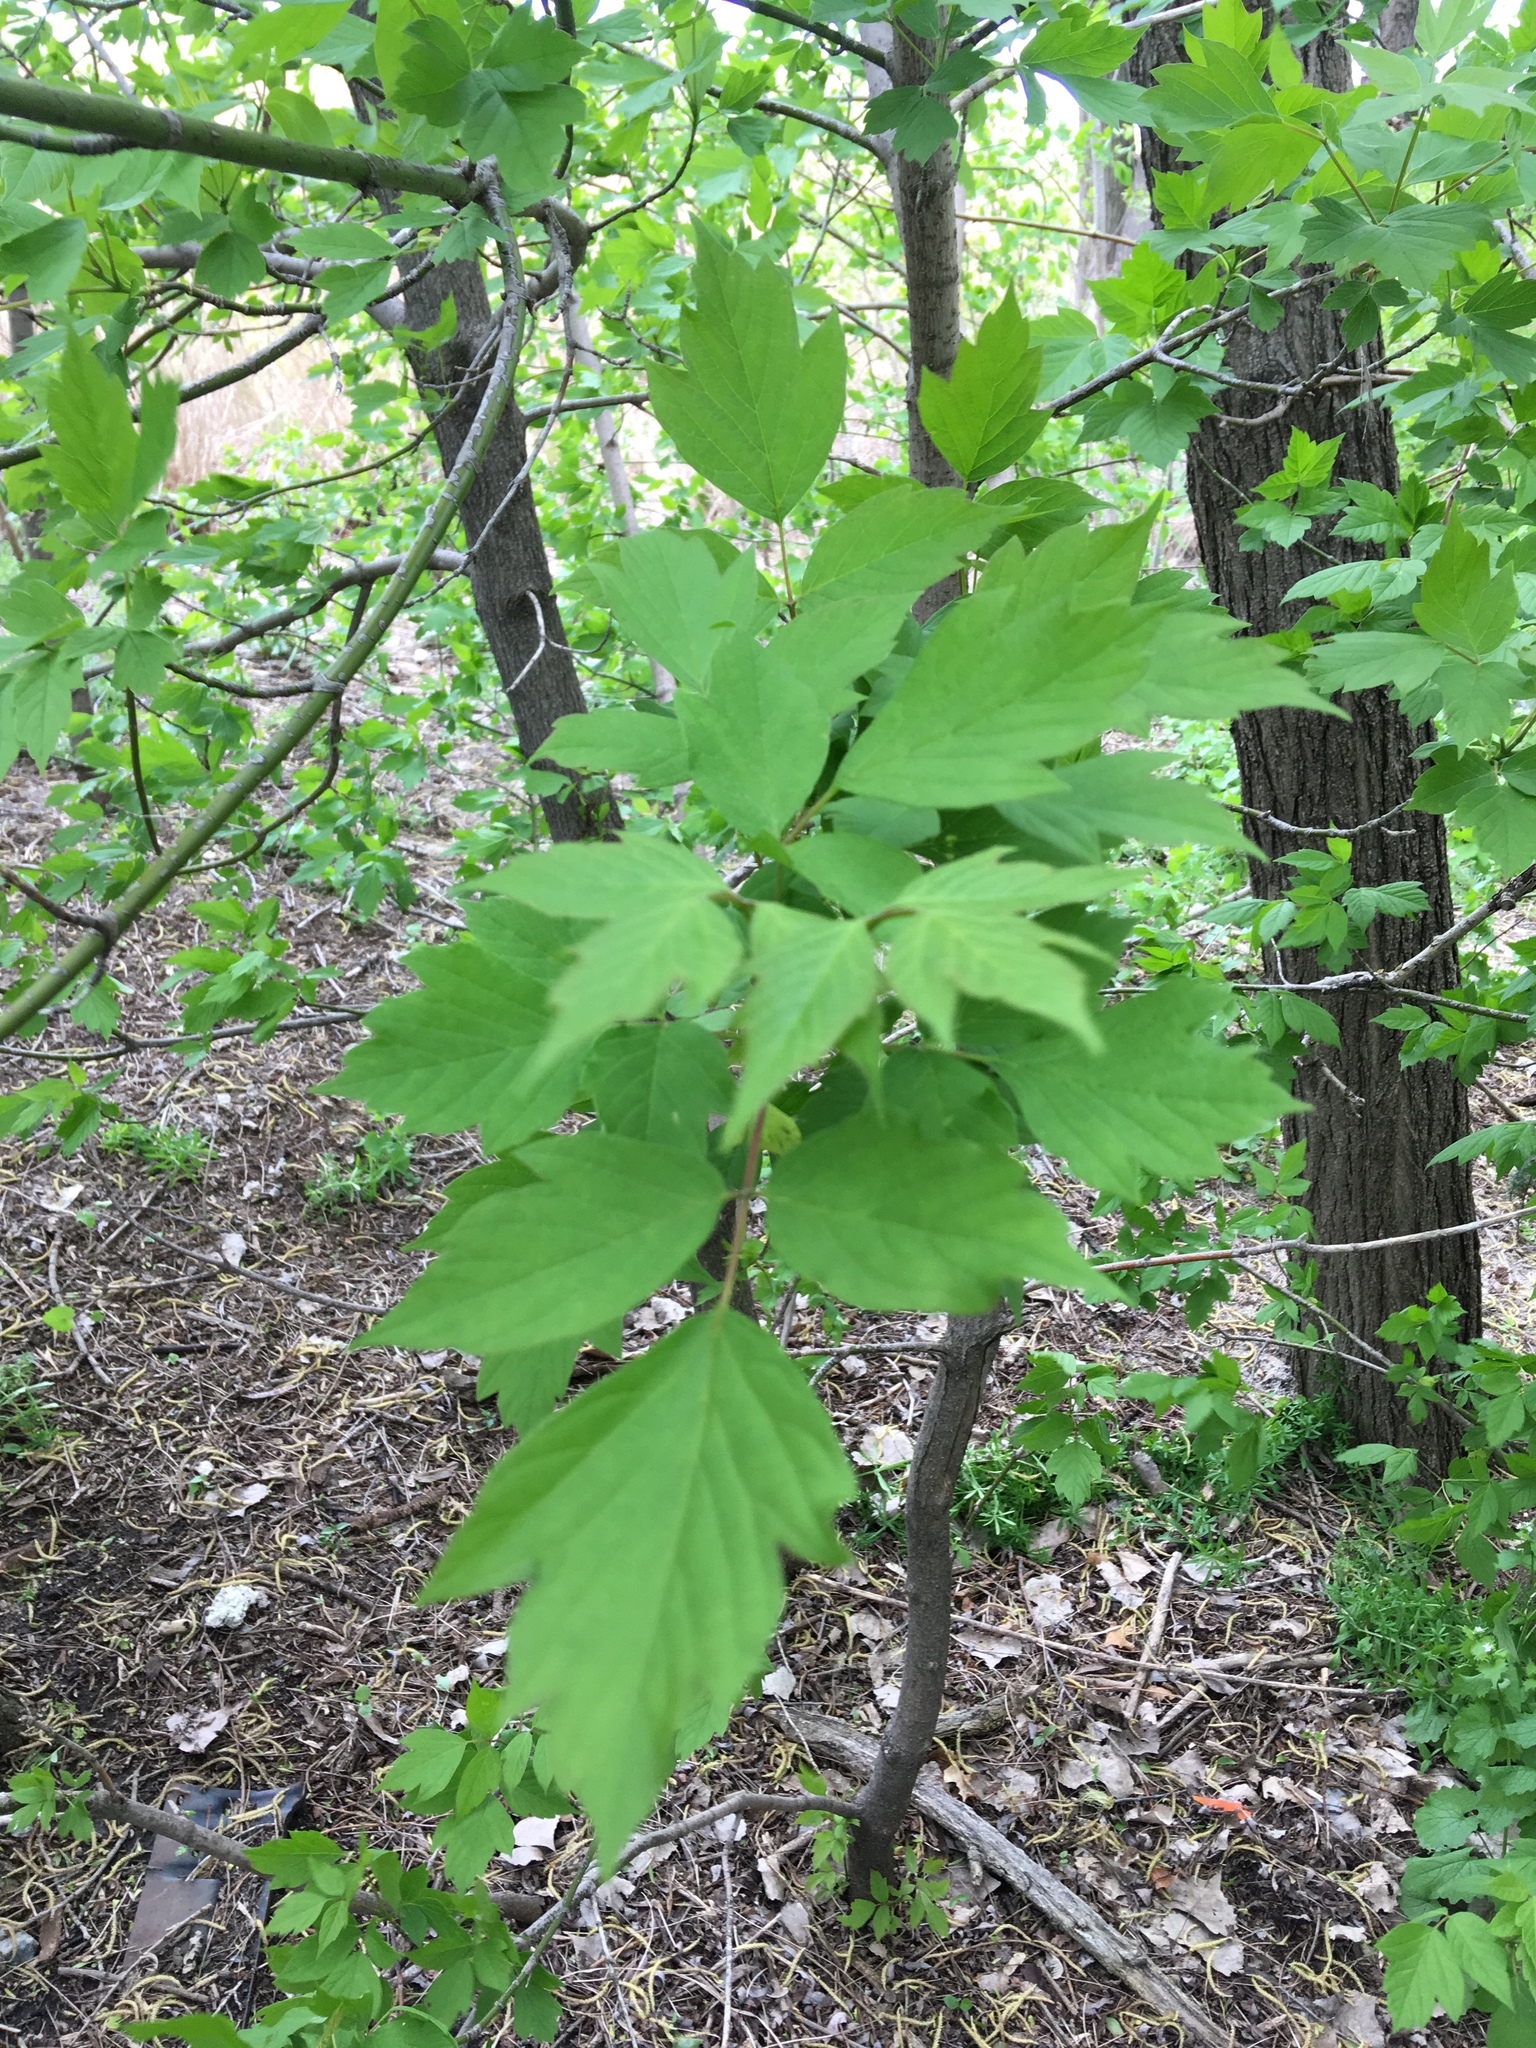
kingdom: Plantae
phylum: Tracheophyta
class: Magnoliopsida
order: Sapindales
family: Sapindaceae
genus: Acer
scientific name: Acer negundo
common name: Ashleaf maple
